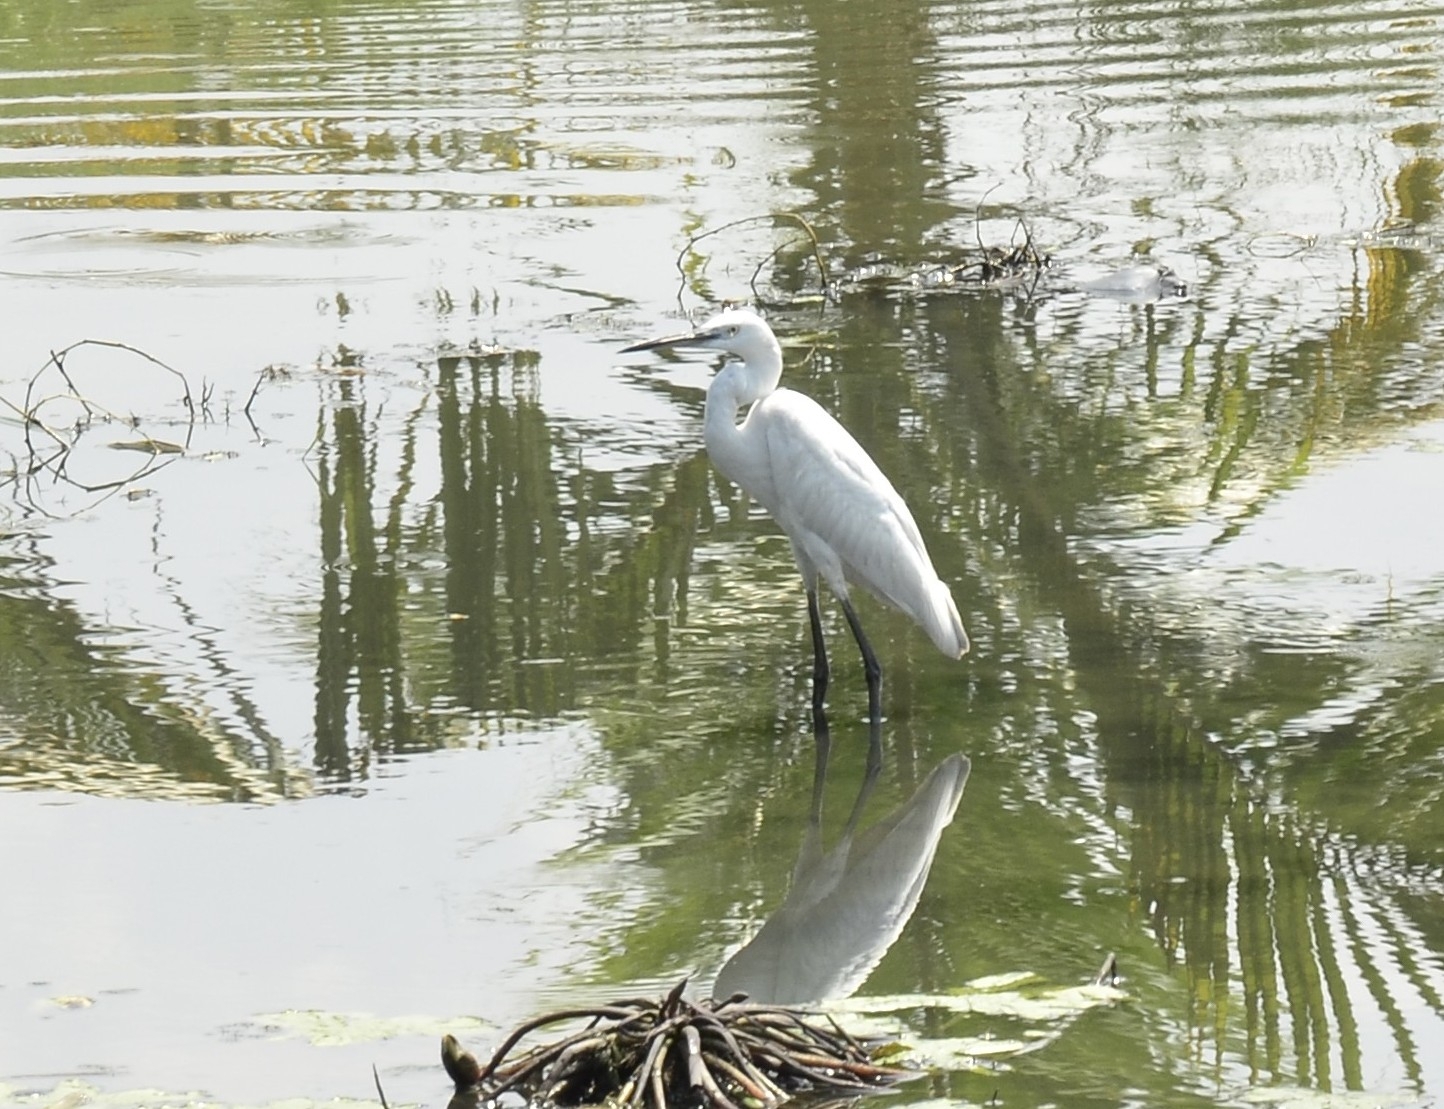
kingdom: Animalia
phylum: Chordata
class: Aves
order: Pelecaniformes
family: Ardeidae
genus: Egretta
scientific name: Egretta garzetta
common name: Little egret
